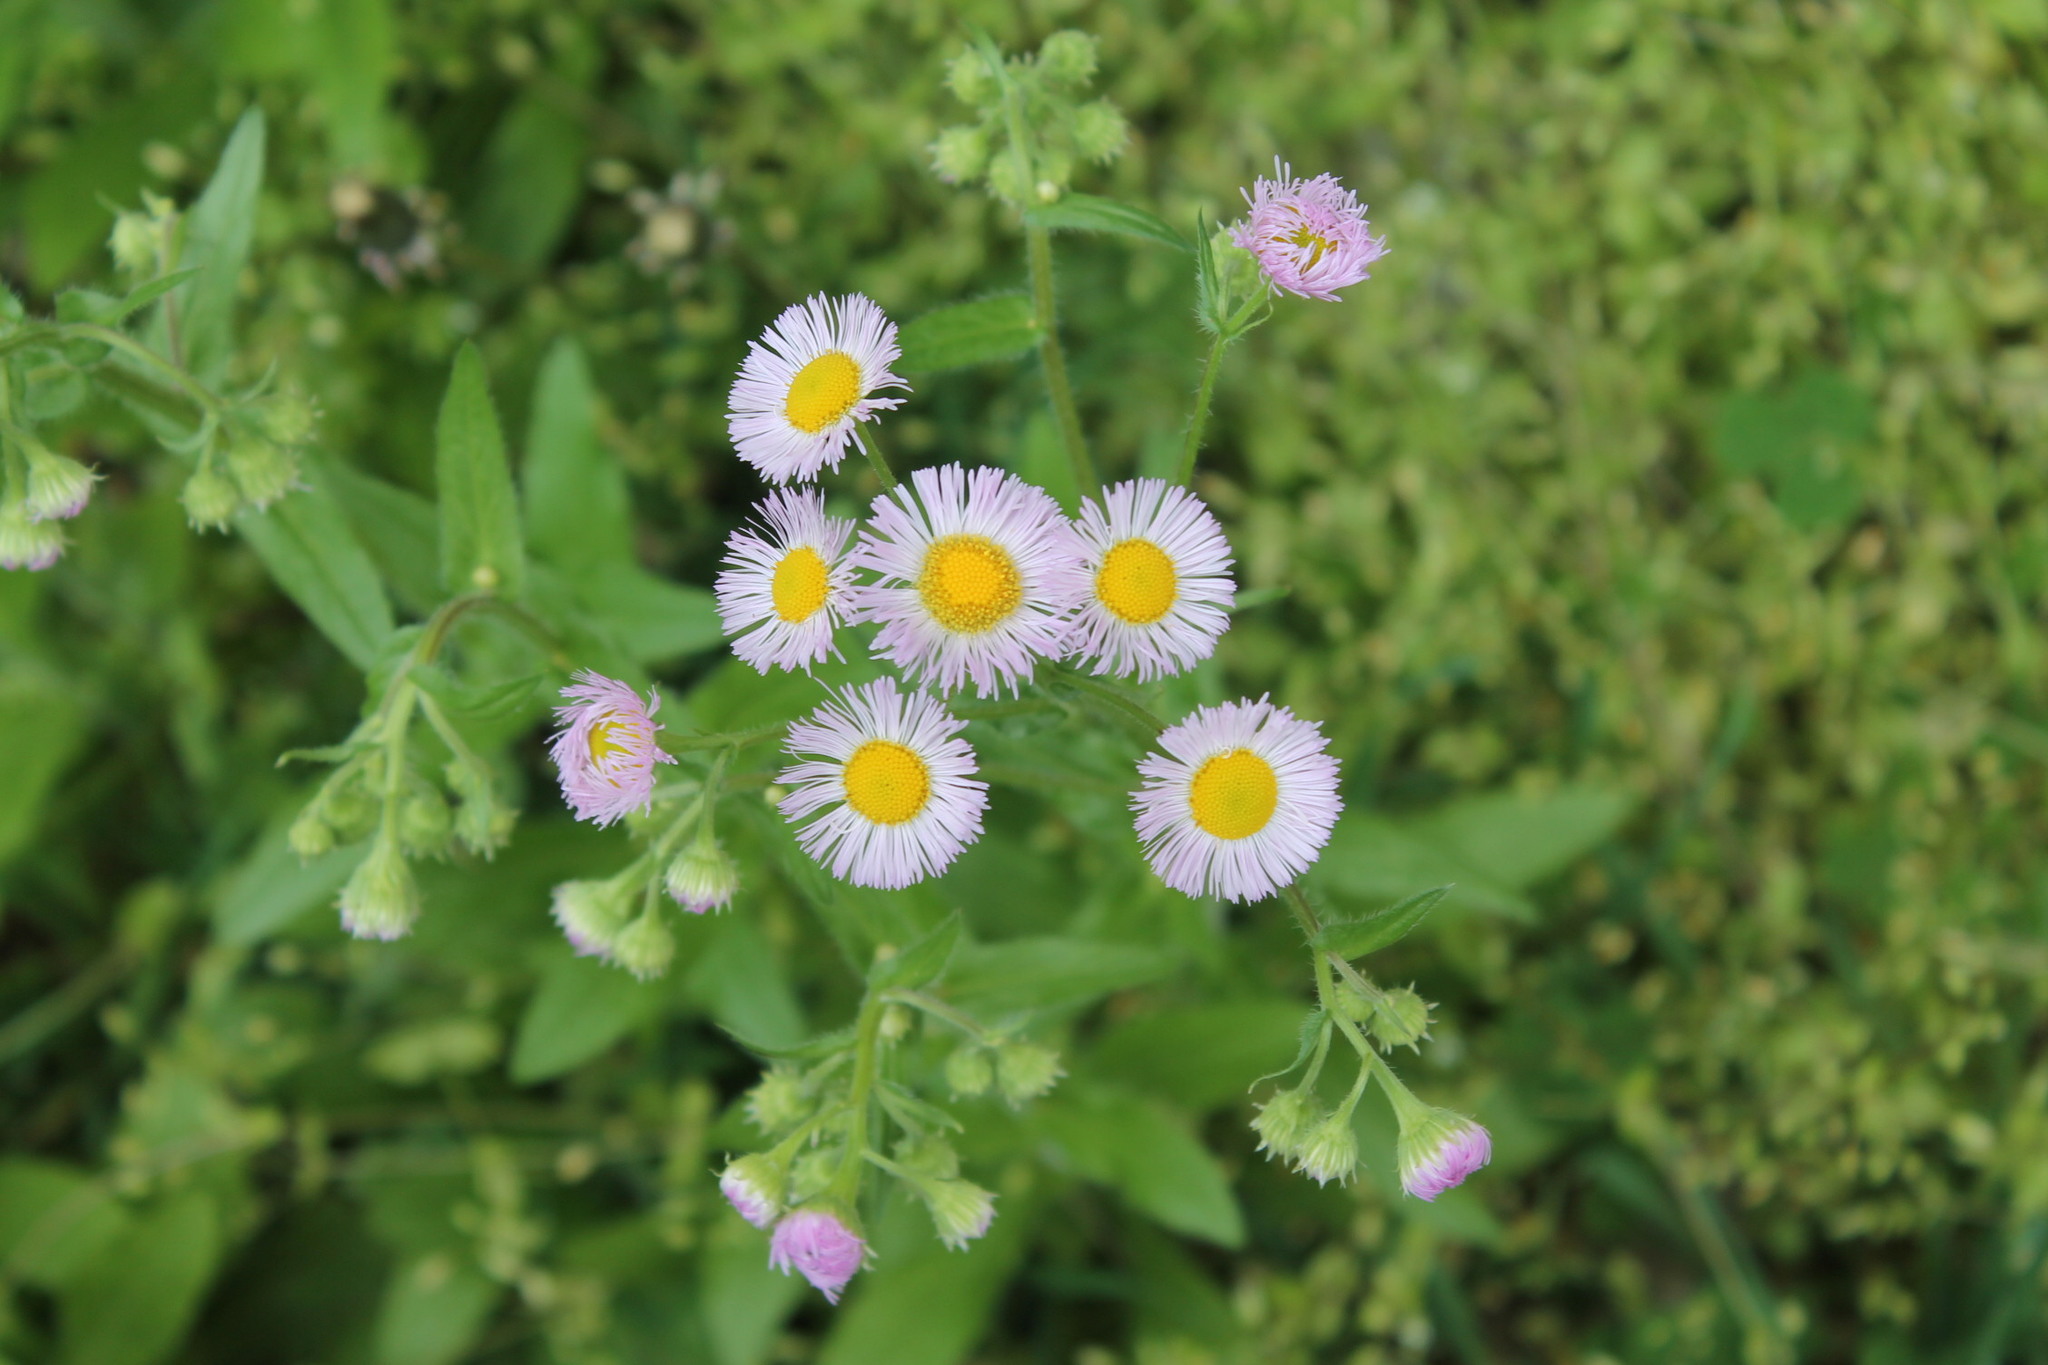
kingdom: Plantae
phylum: Tracheophyta
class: Magnoliopsida
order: Asterales
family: Asteraceae
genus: Erigeron
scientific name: Erigeron philadelphicus
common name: Robin's-plantain
